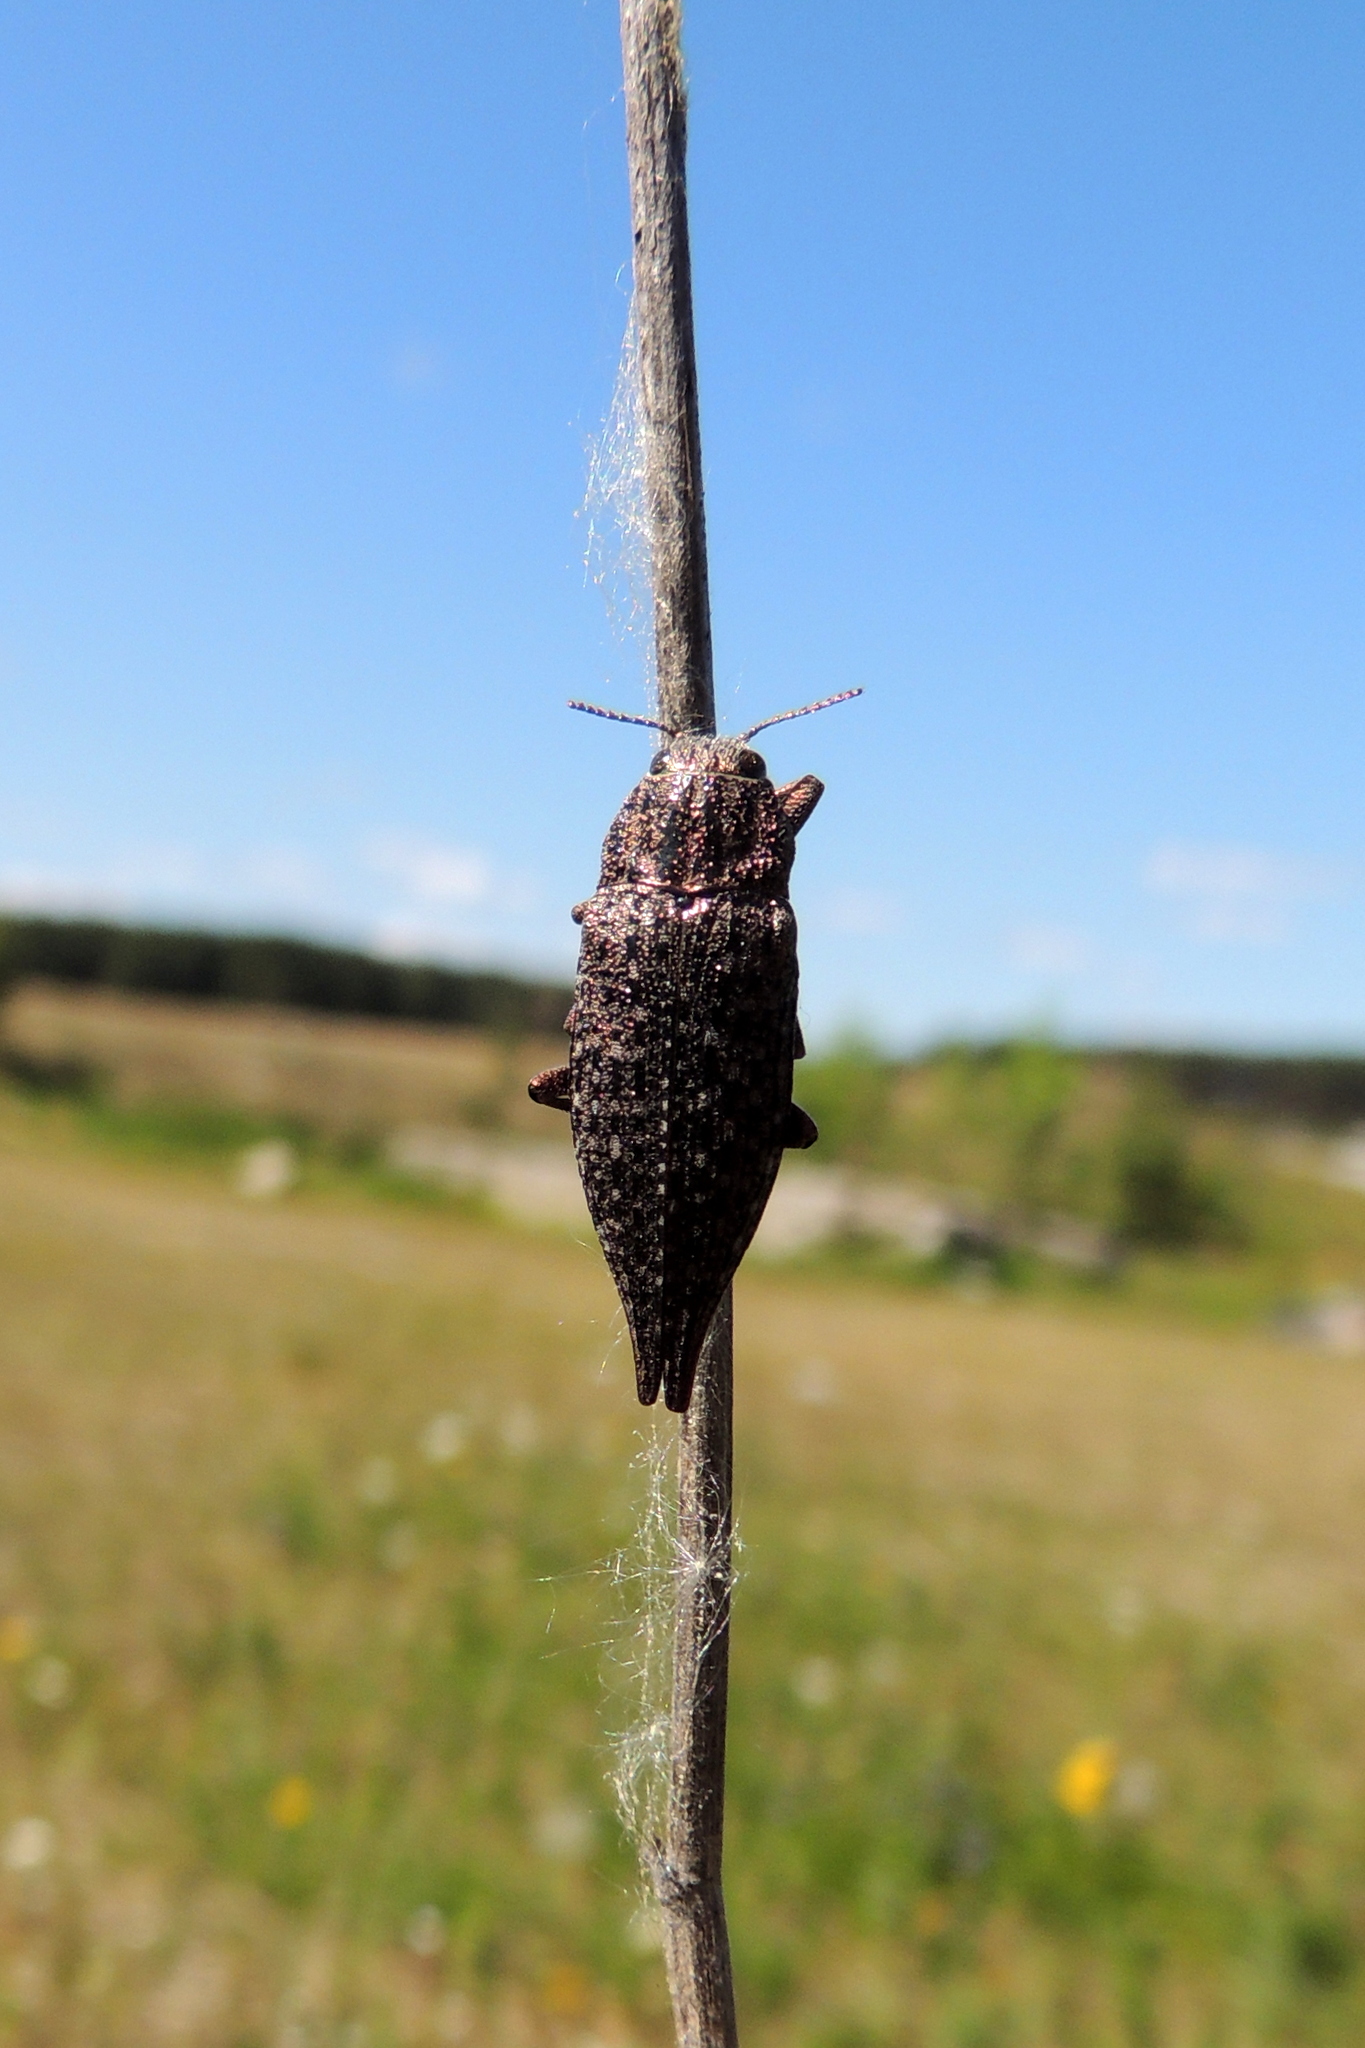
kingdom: Animalia
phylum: Arthropoda
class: Insecta
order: Coleoptera
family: Buprestidae
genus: Dicerca
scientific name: Dicerca furcata
